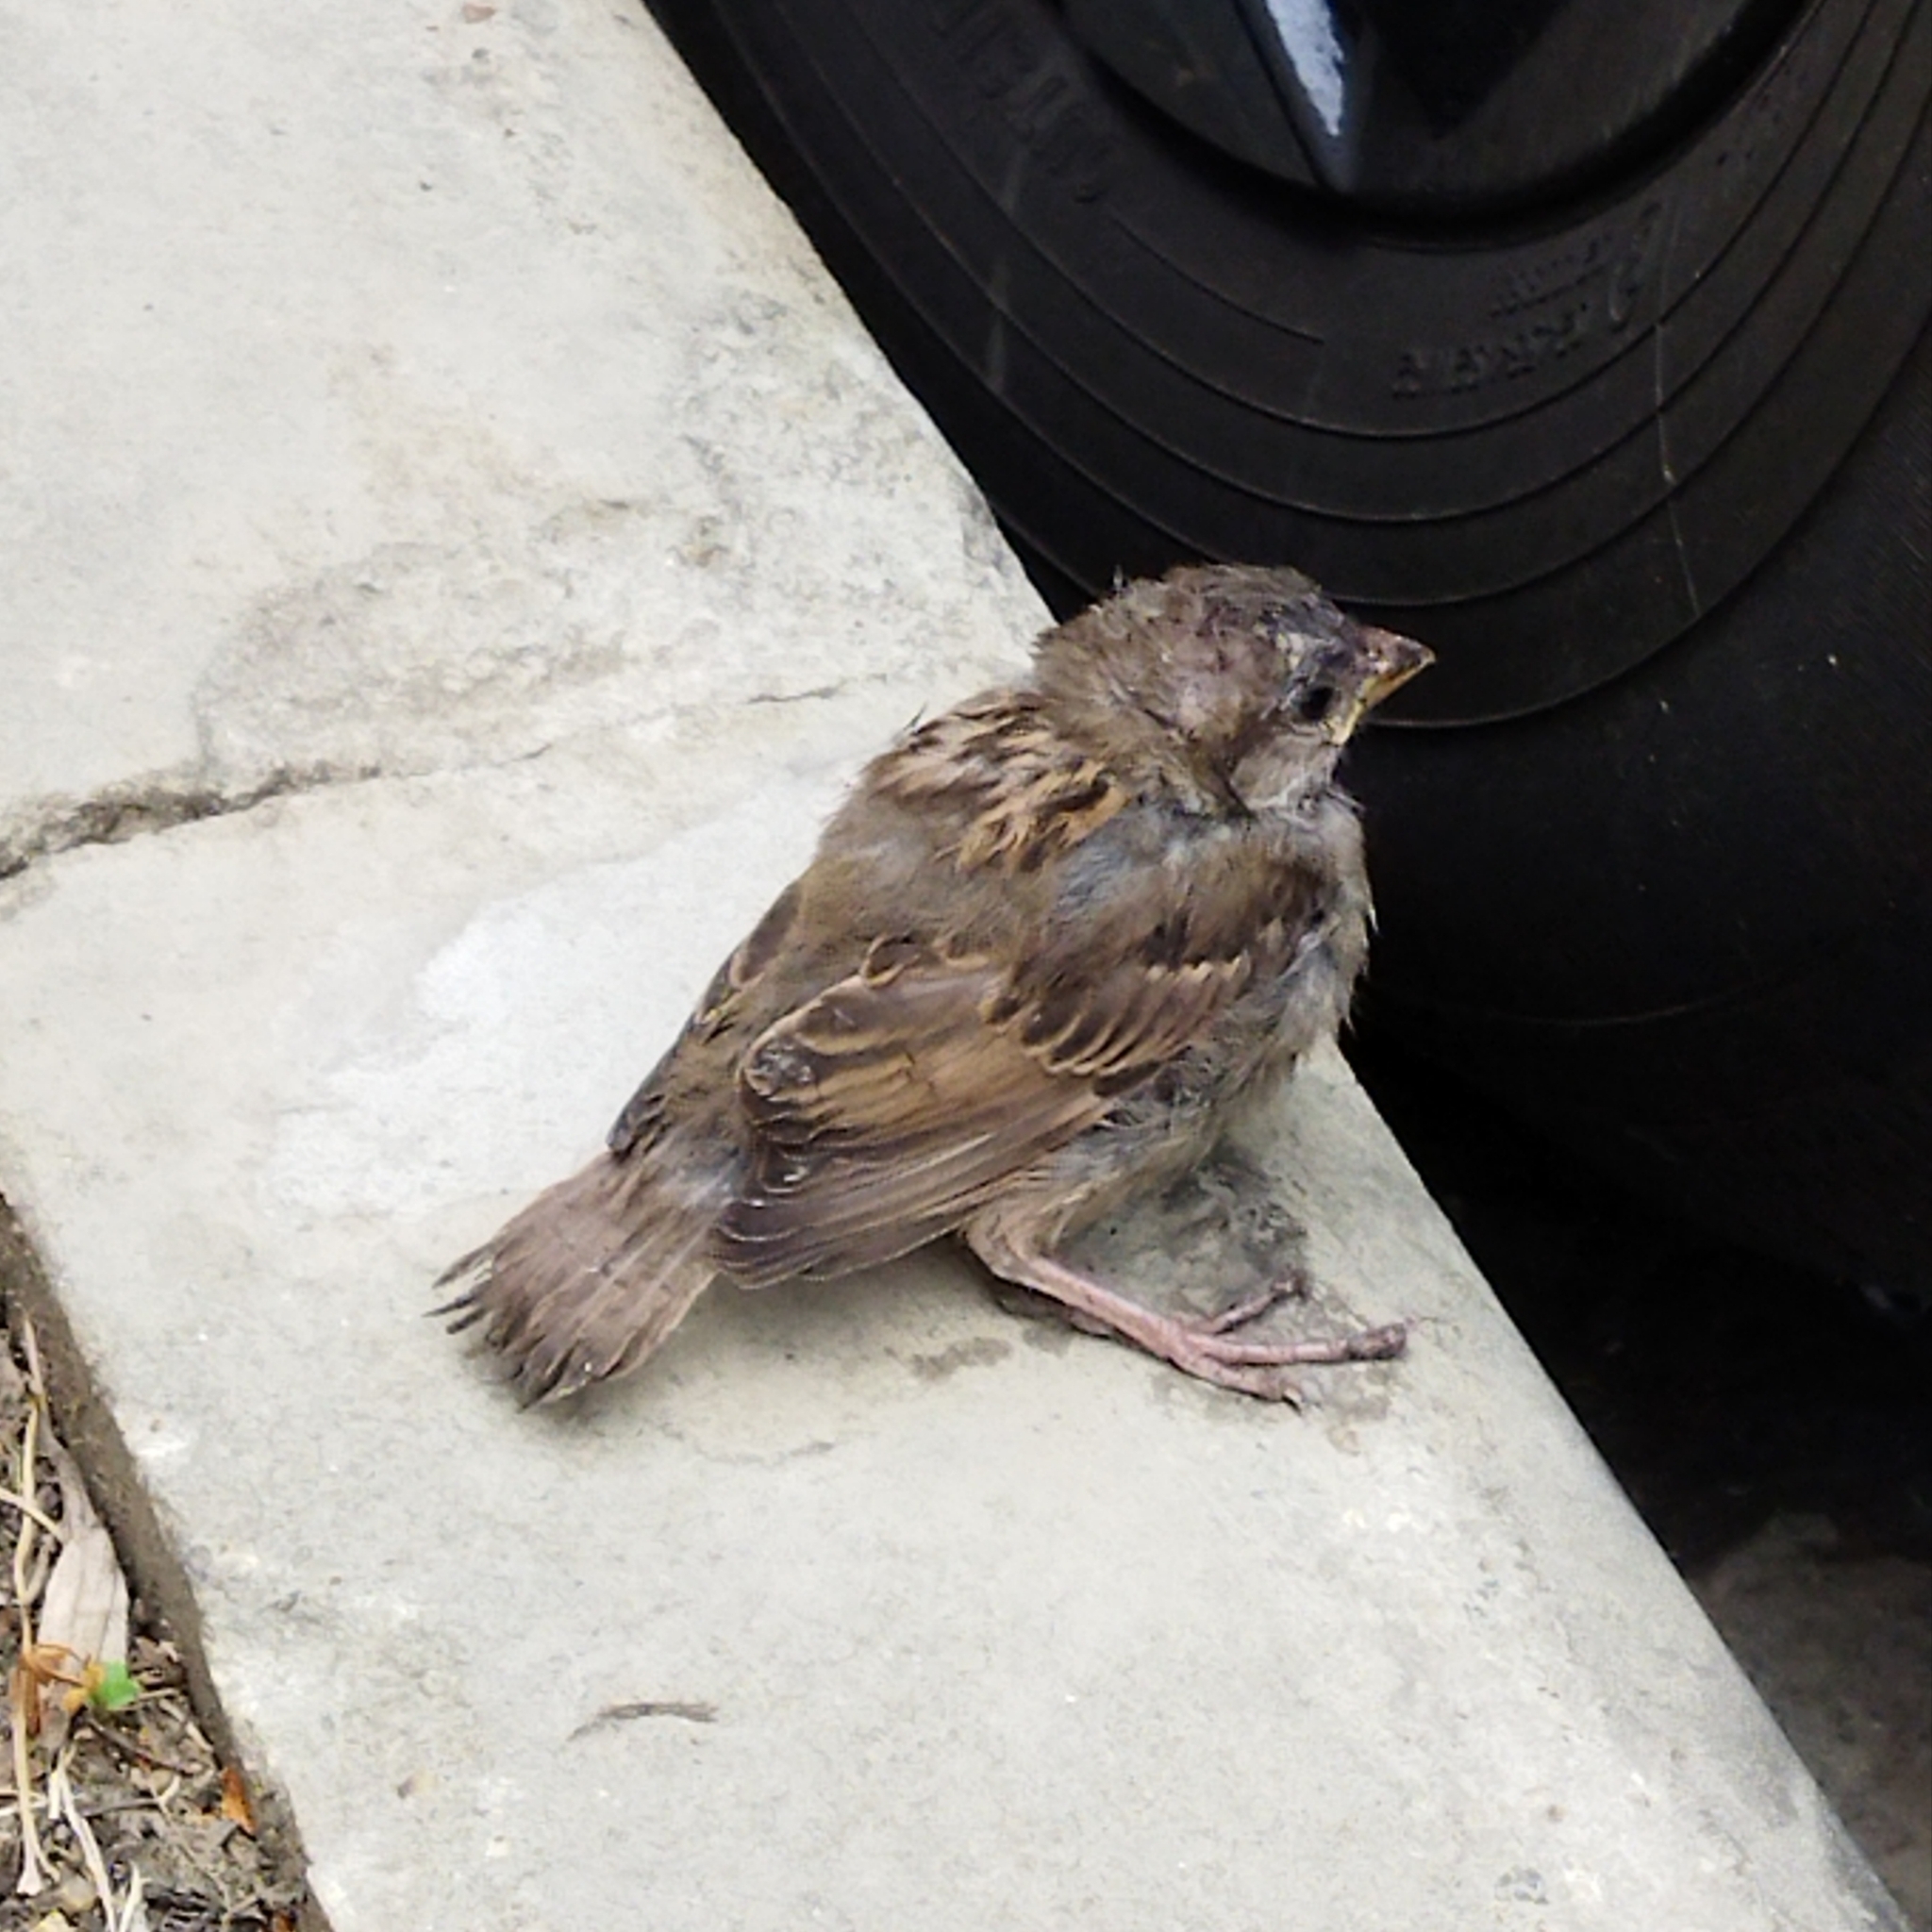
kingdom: Animalia
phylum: Chordata
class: Aves
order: Passeriformes
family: Passeridae
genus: Passer
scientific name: Passer domesticus
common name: House sparrow
